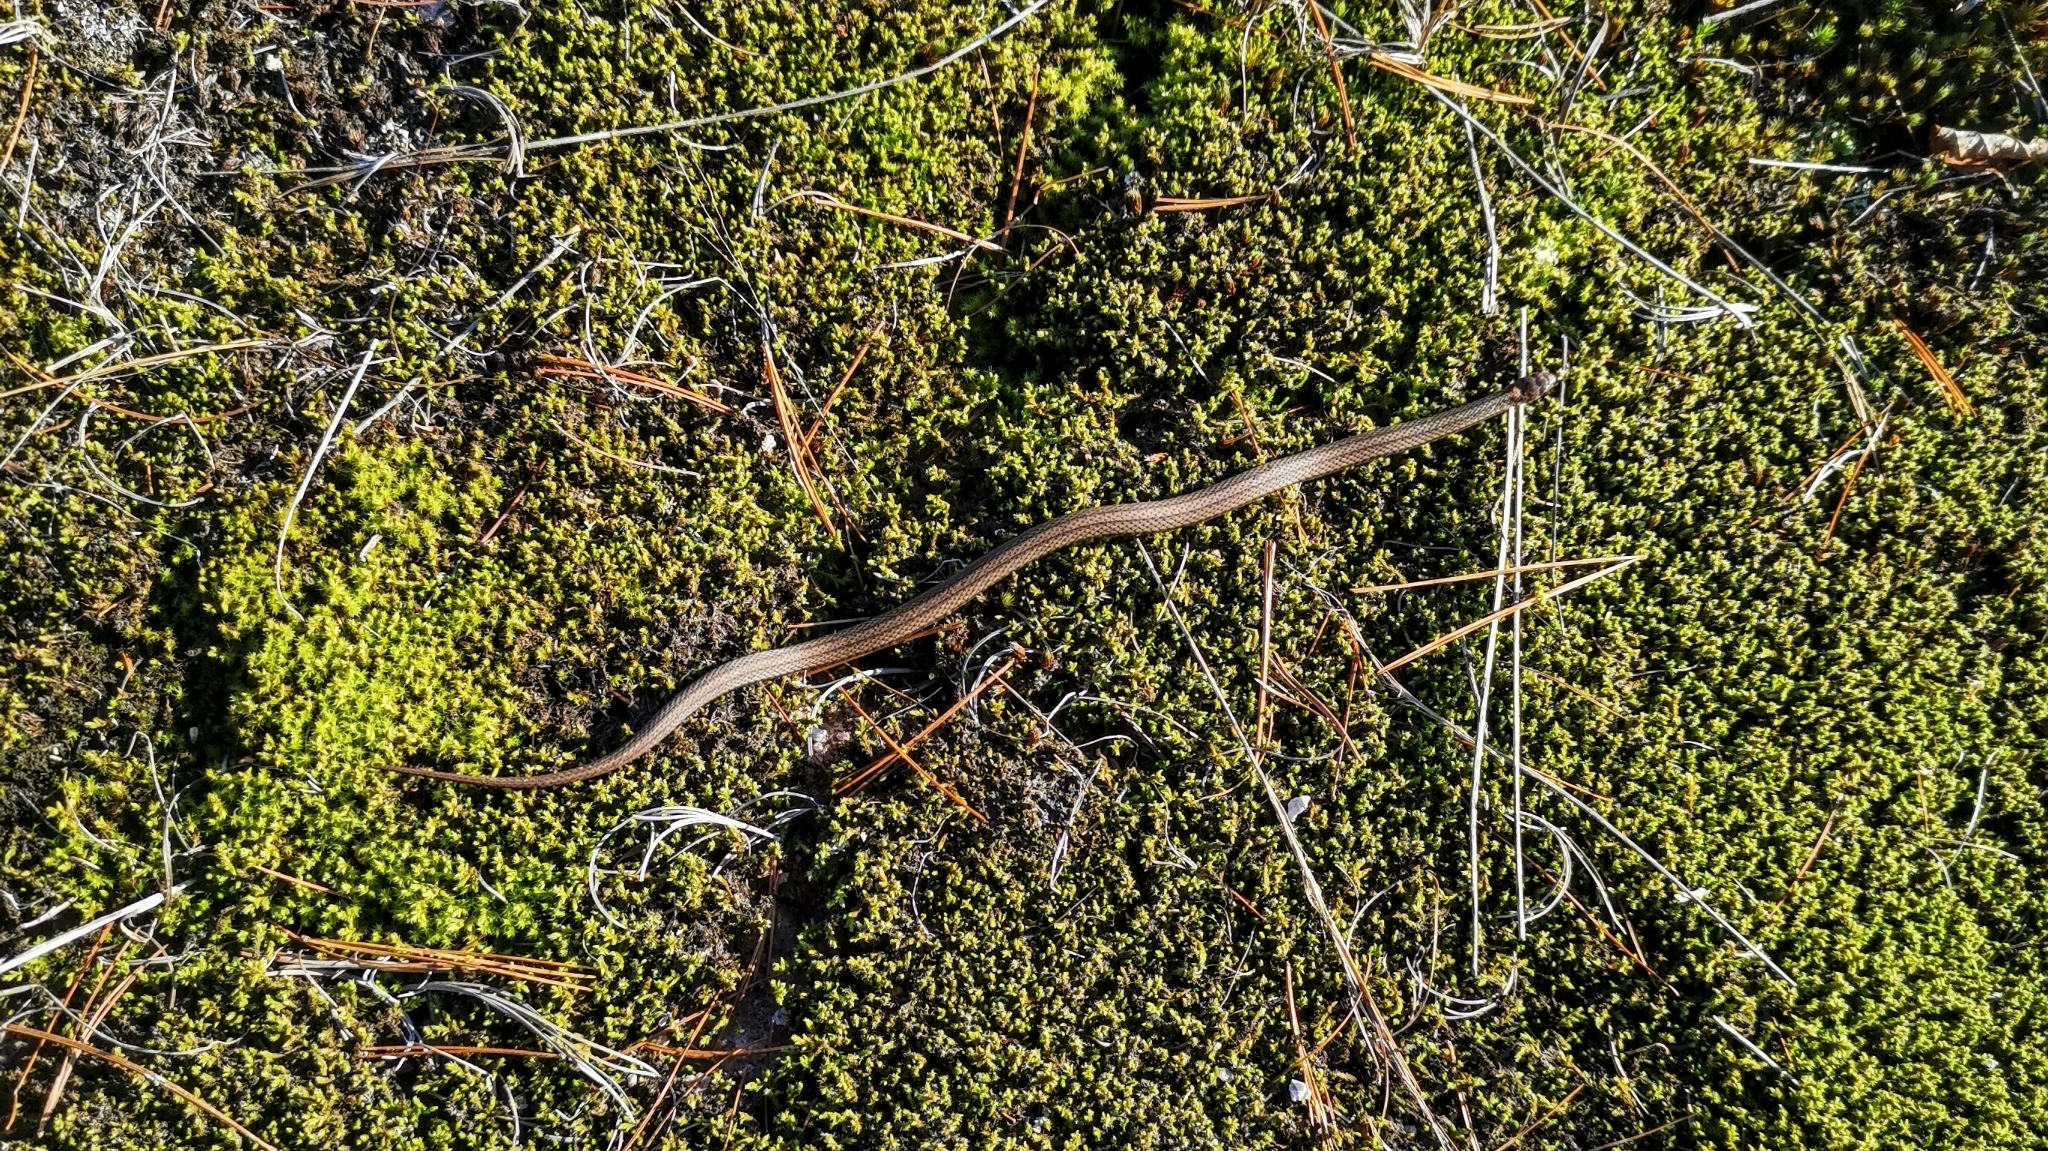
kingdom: Animalia
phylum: Chordata
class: Squamata
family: Colubridae
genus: Storeria
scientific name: Storeria occipitomaculata
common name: Redbelly snake
